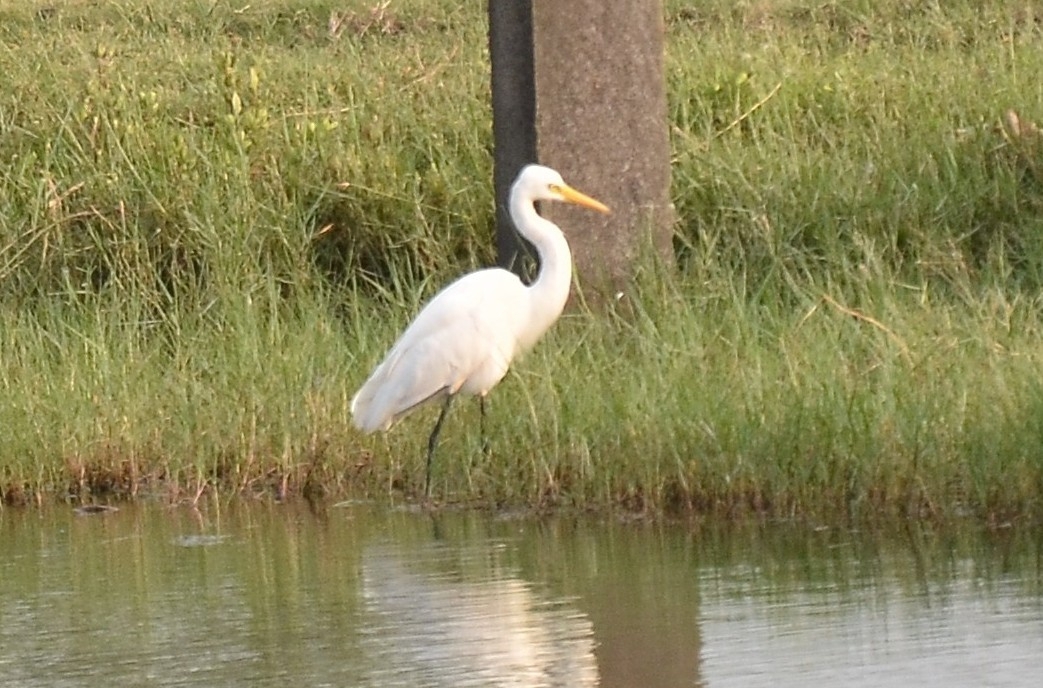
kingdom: Animalia
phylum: Chordata
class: Aves
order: Pelecaniformes
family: Ardeidae
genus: Egretta
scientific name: Egretta intermedia
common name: Intermediate egret
